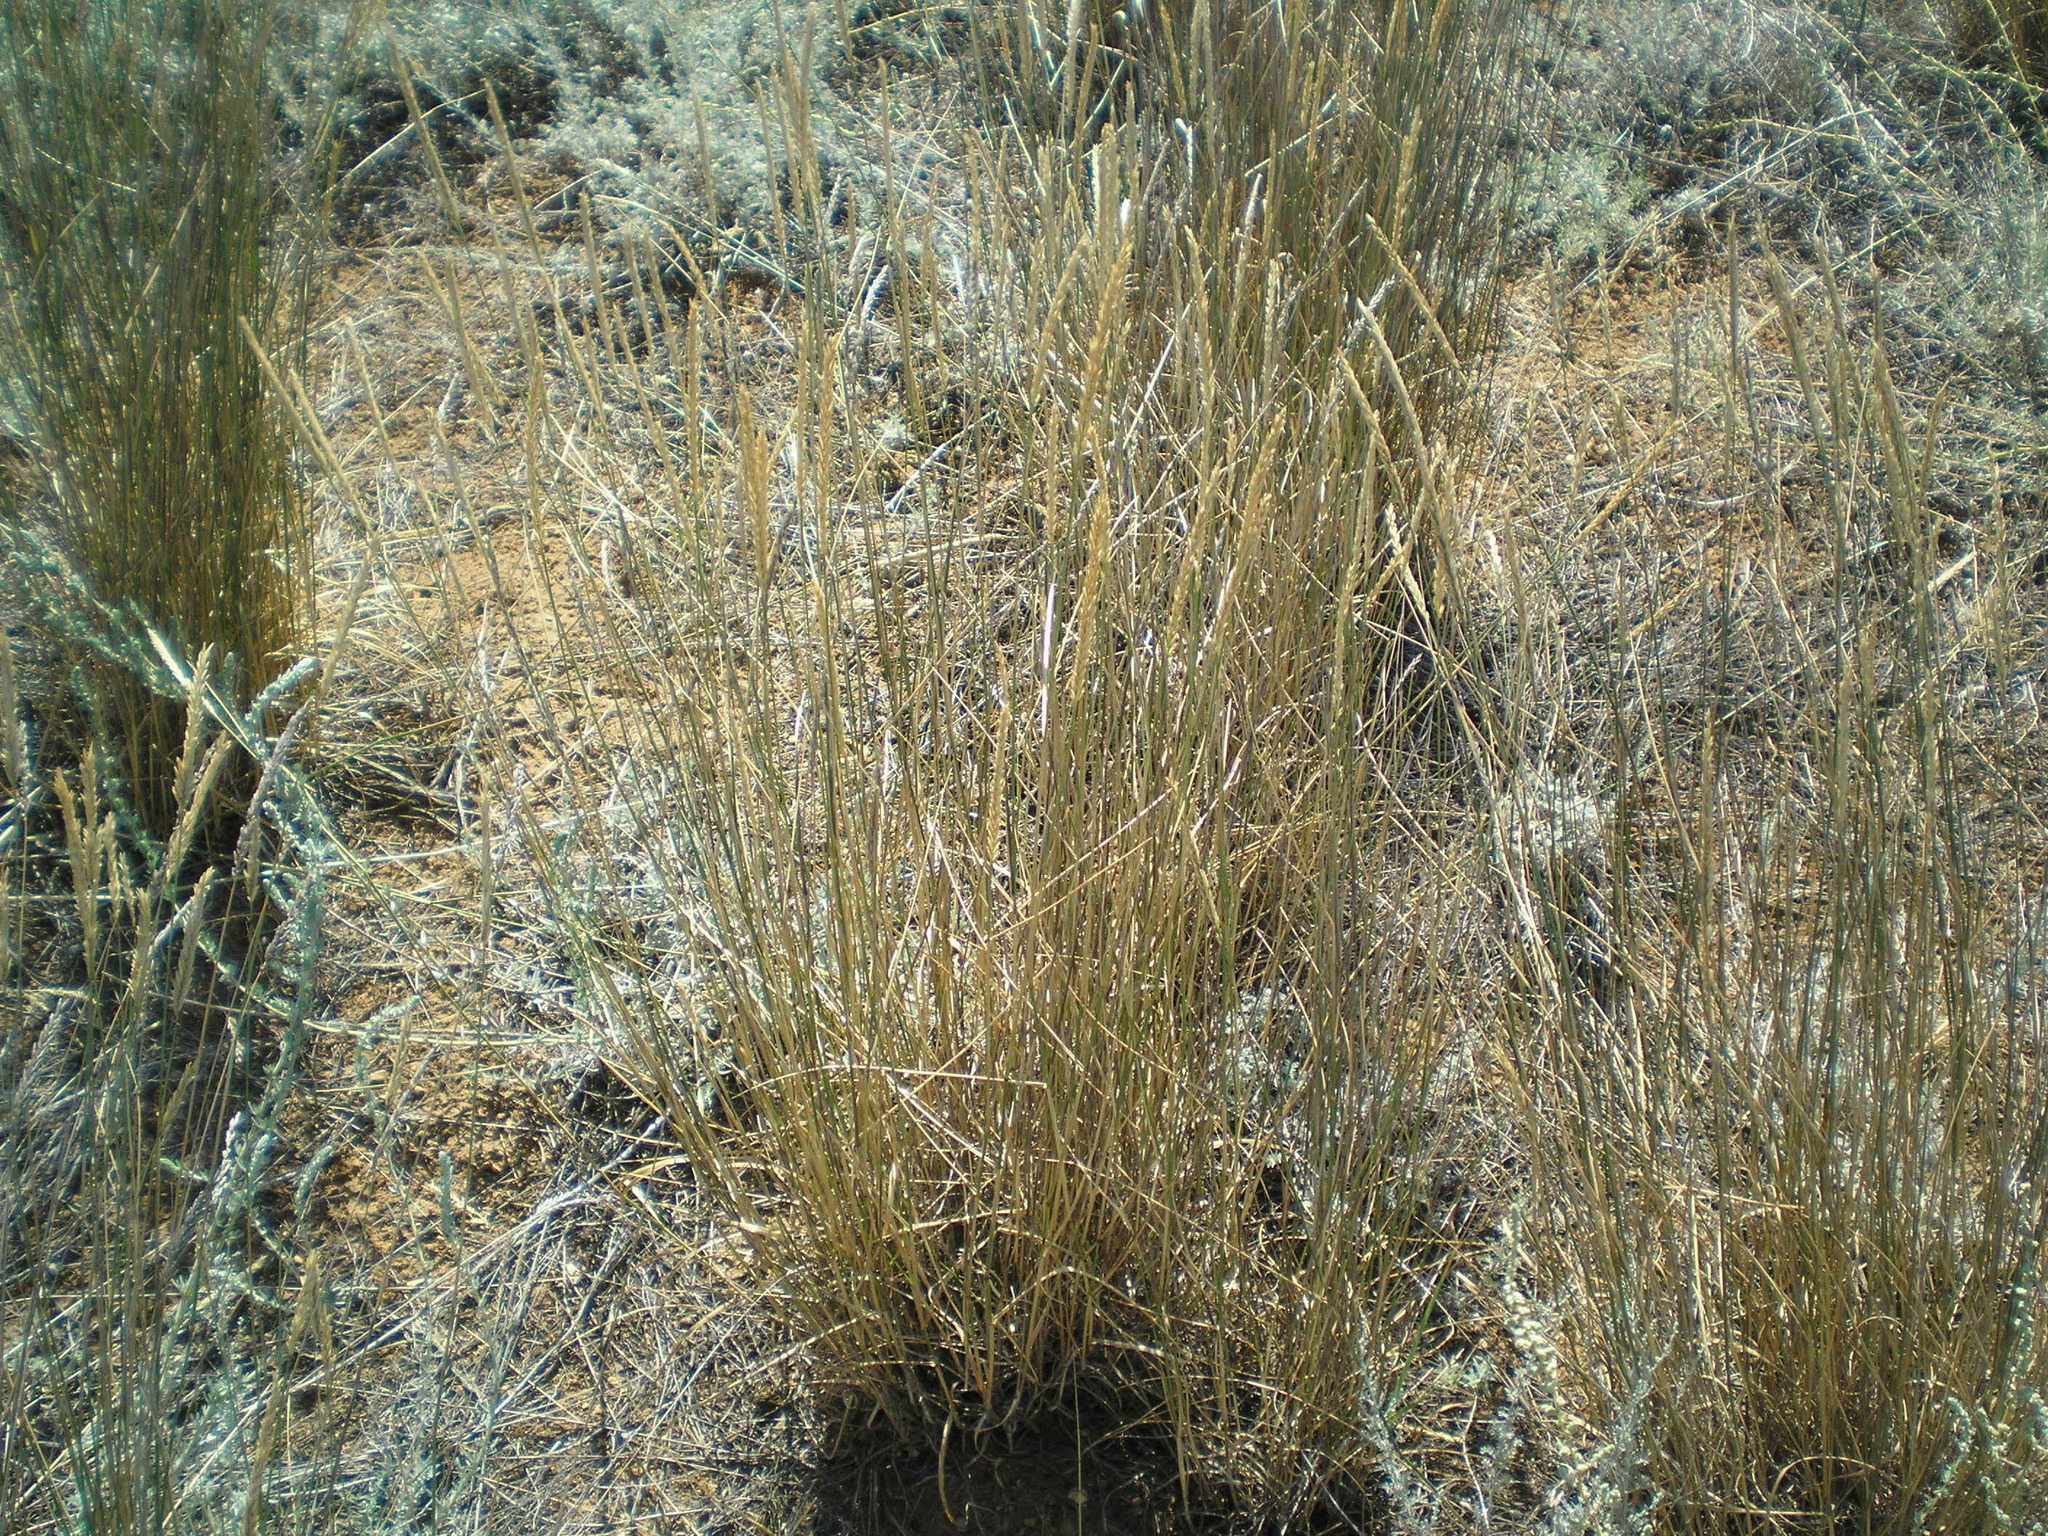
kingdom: Plantae
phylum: Tracheophyta
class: Liliopsida
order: Poales
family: Poaceae
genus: Agropyron
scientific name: Agropyron desertorum
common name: Desert wheatgrass
